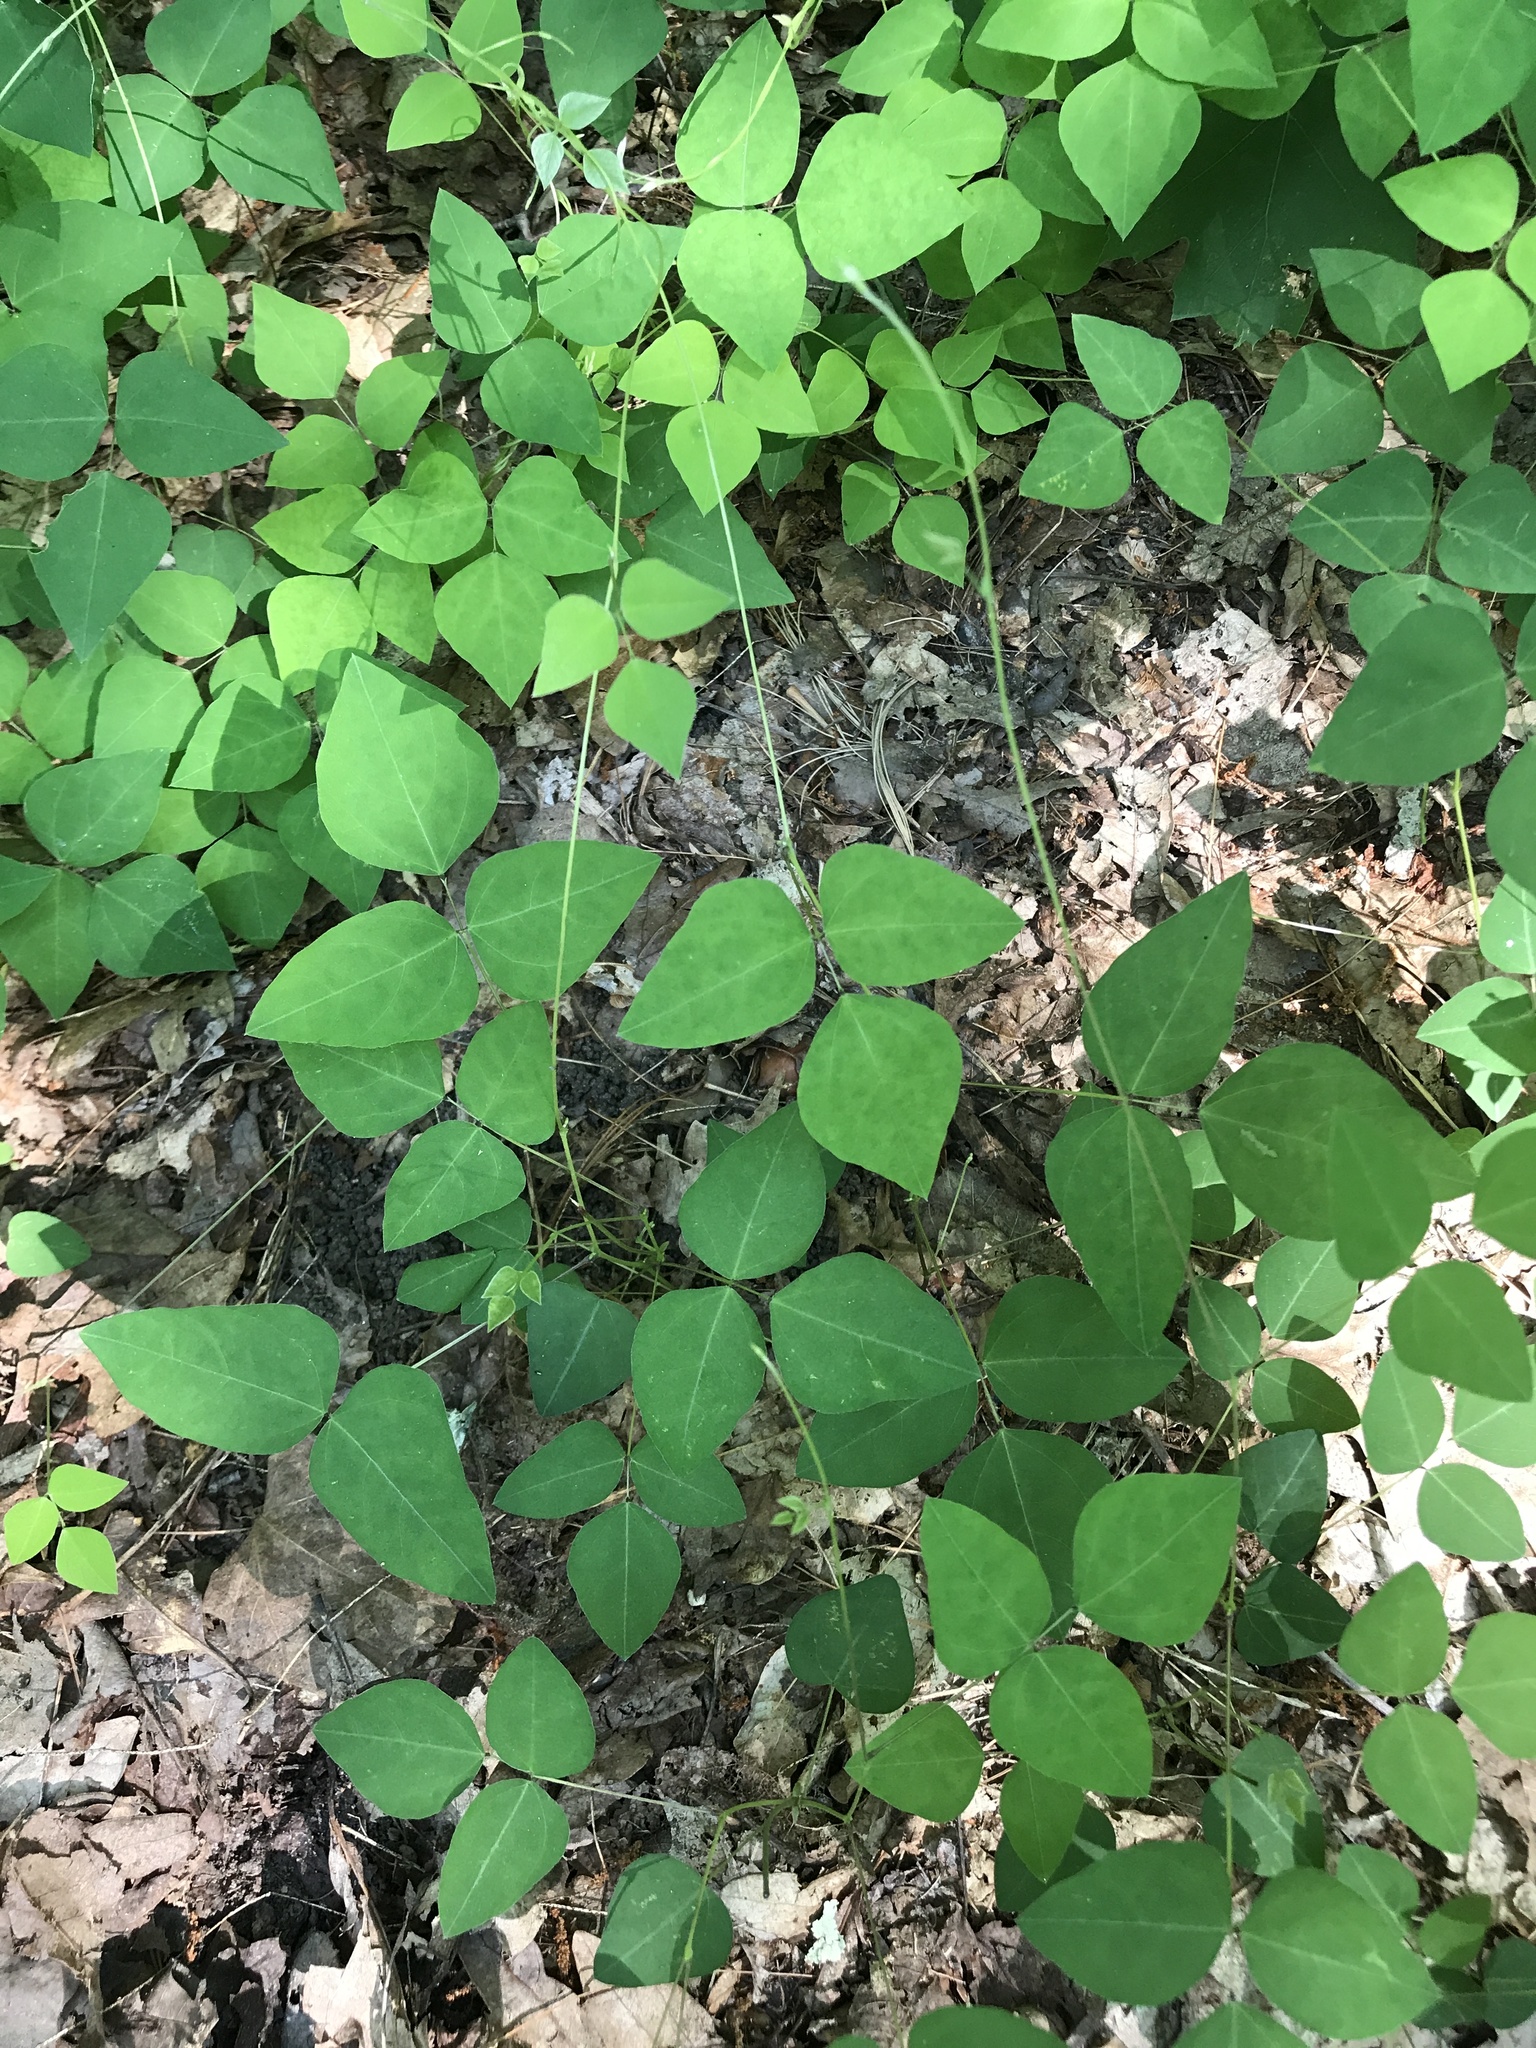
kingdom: Plantae
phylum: Tracheophyta
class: Magnoliopsida
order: Fabales
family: Fabaceae
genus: Amphicarpaea
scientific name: Amphicarpaea bracteata
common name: American hog peanut
